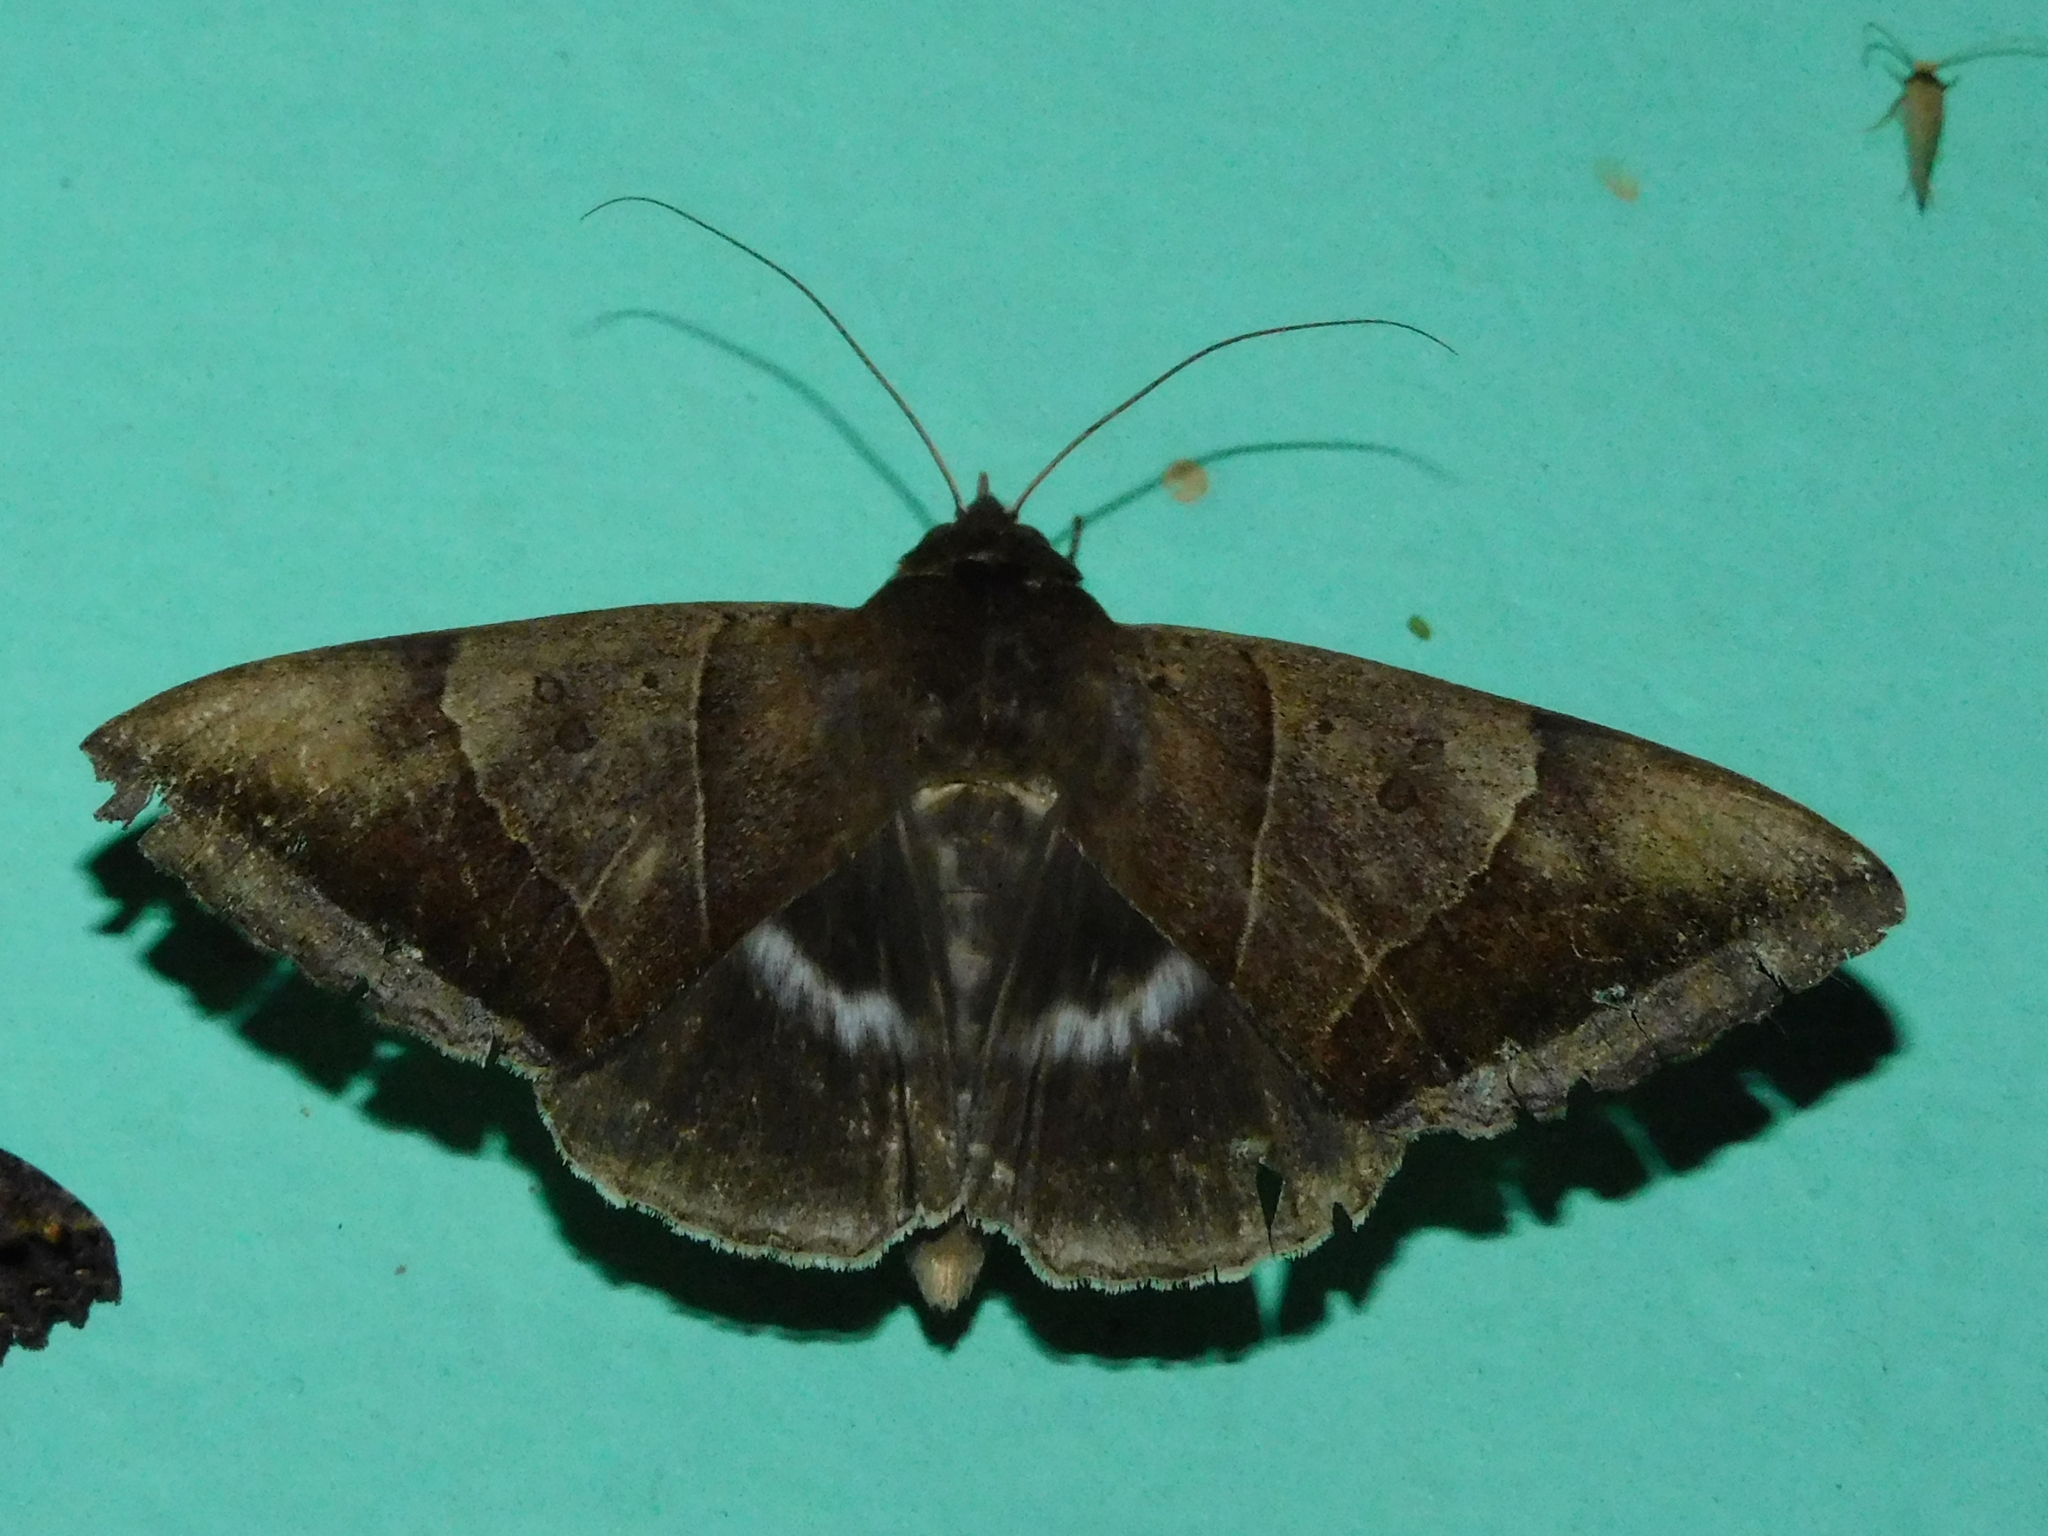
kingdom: Animalia
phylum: Arthropoda
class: Insecta
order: Lepidoptera
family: Erebidae
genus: Artena
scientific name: Artena dotata
